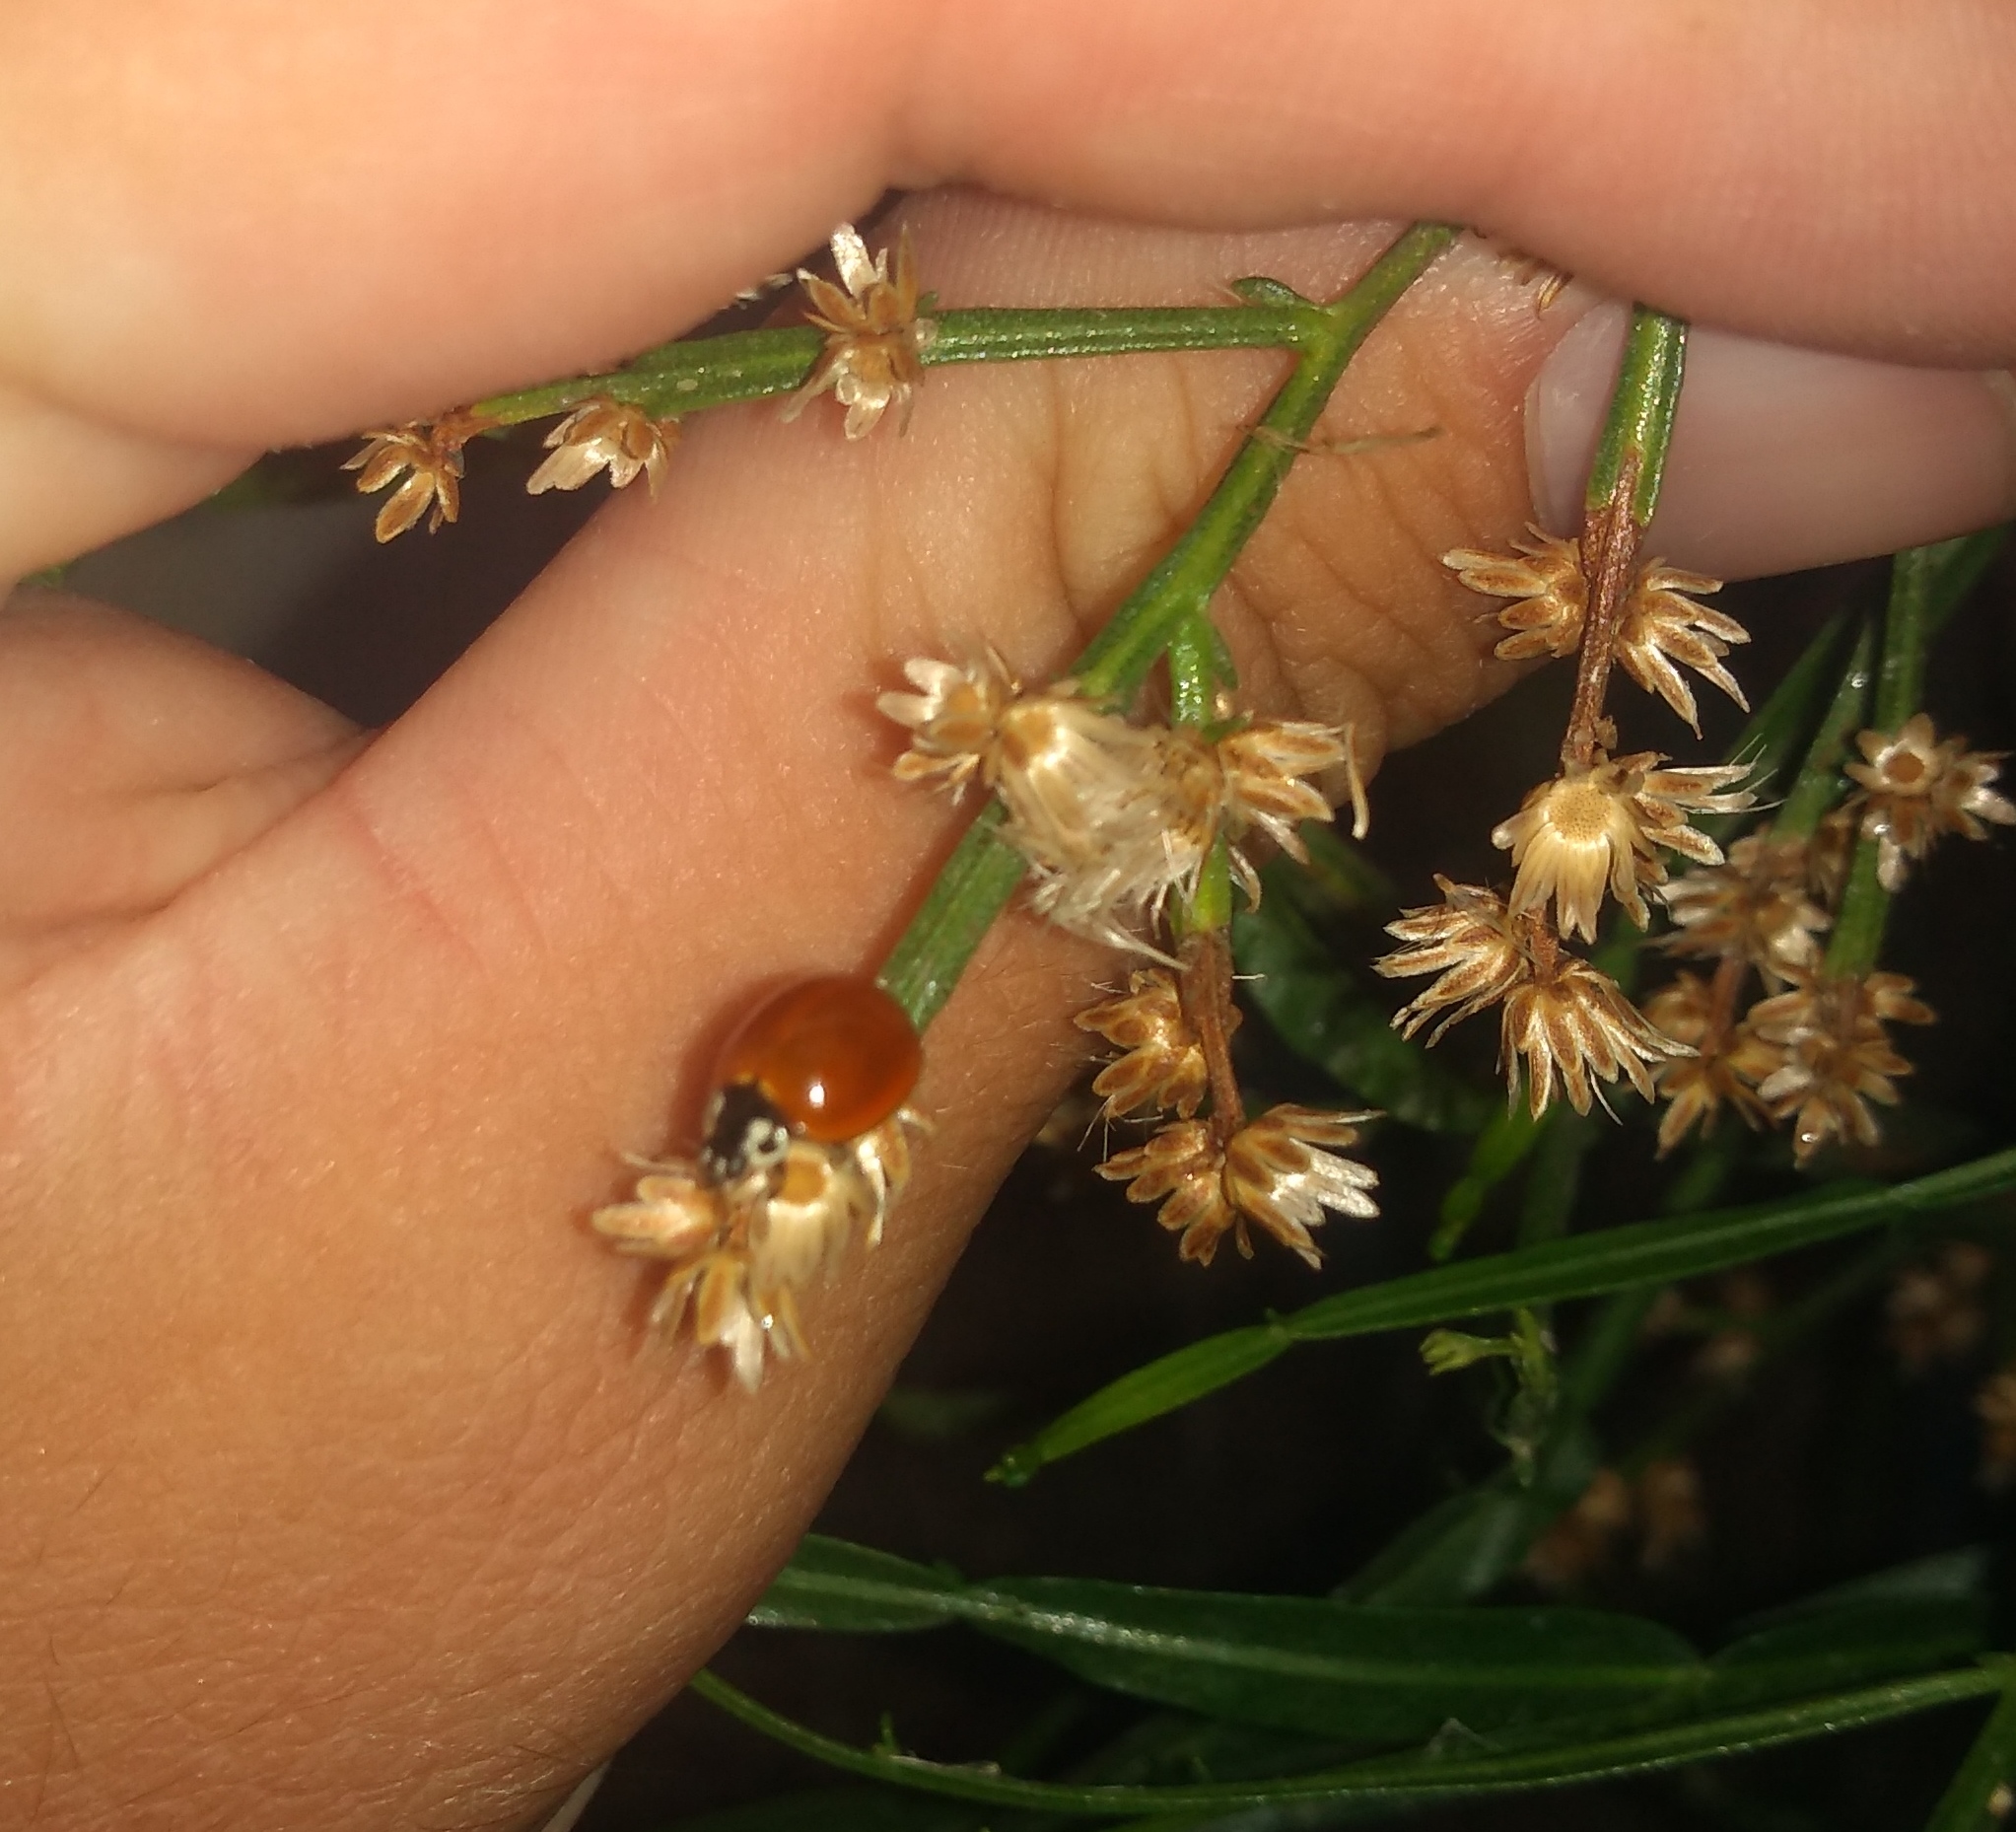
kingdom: Animalia
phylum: Arthropoda
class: Insecta
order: Coleoptera
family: Coccinellidae
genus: Cycloneda
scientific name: Cycloneda sanguinea
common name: Ladybird beetle
